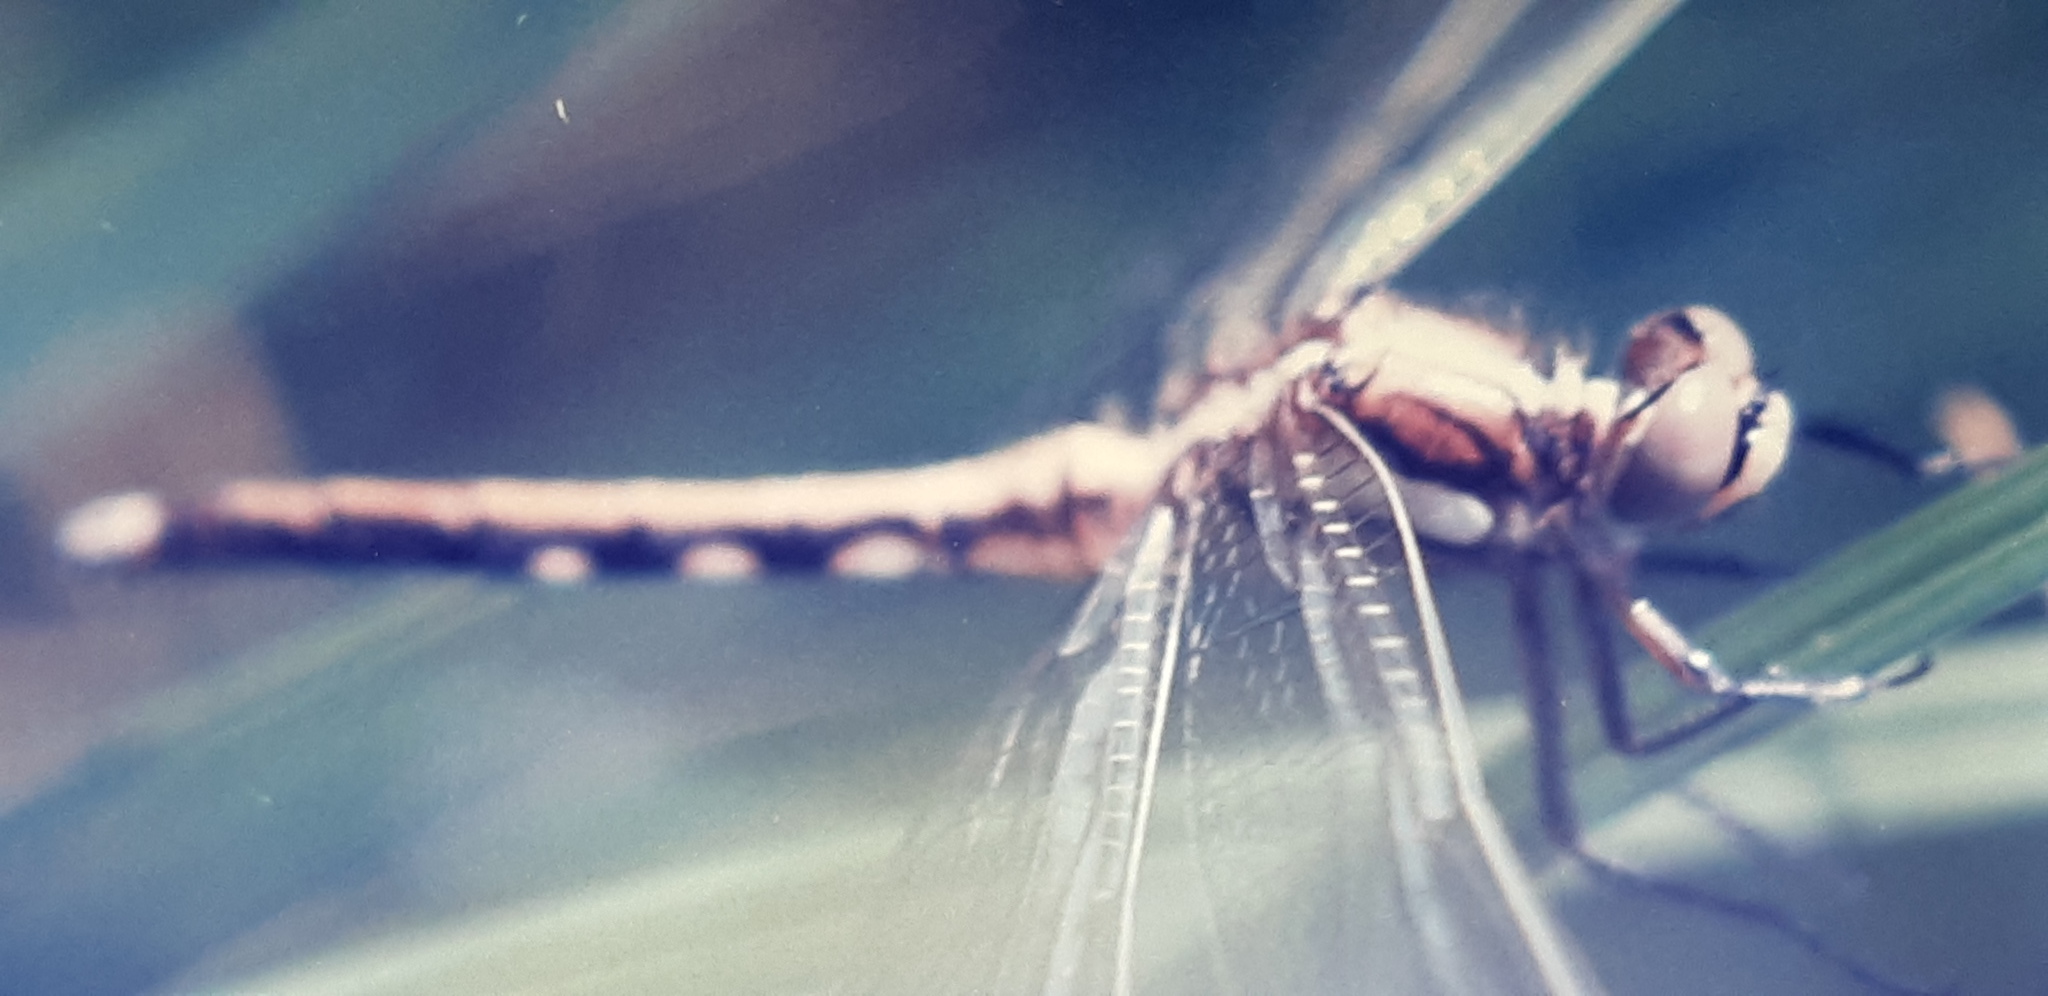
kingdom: Animalia
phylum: Arthropoda
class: Insecta
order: Odonata
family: Libellulidae
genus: Orthetrum
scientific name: Orthetrum albistylum
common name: White-tailed skimmer
